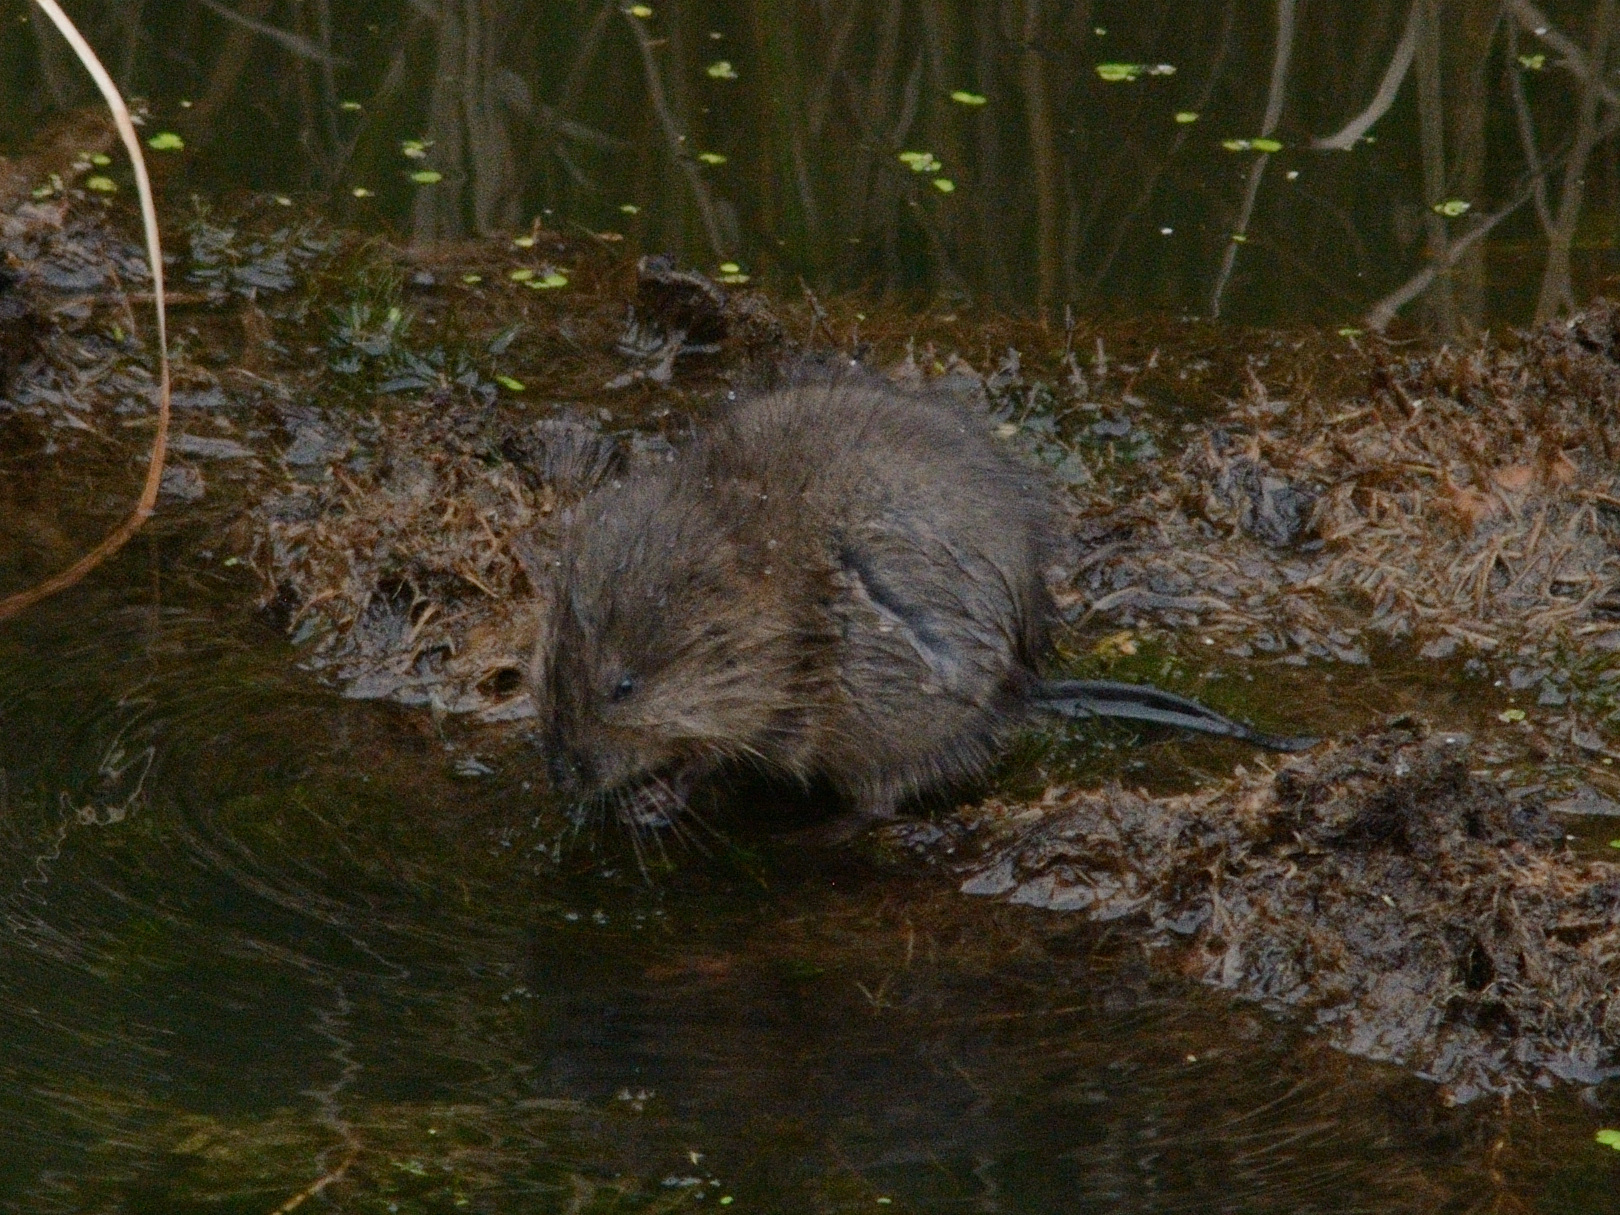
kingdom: Animalia
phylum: Chordata
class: Mammalia
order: Rodentia
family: Cricetidae
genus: Ondatra
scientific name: Ondatra zibethicus
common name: Muskrat
